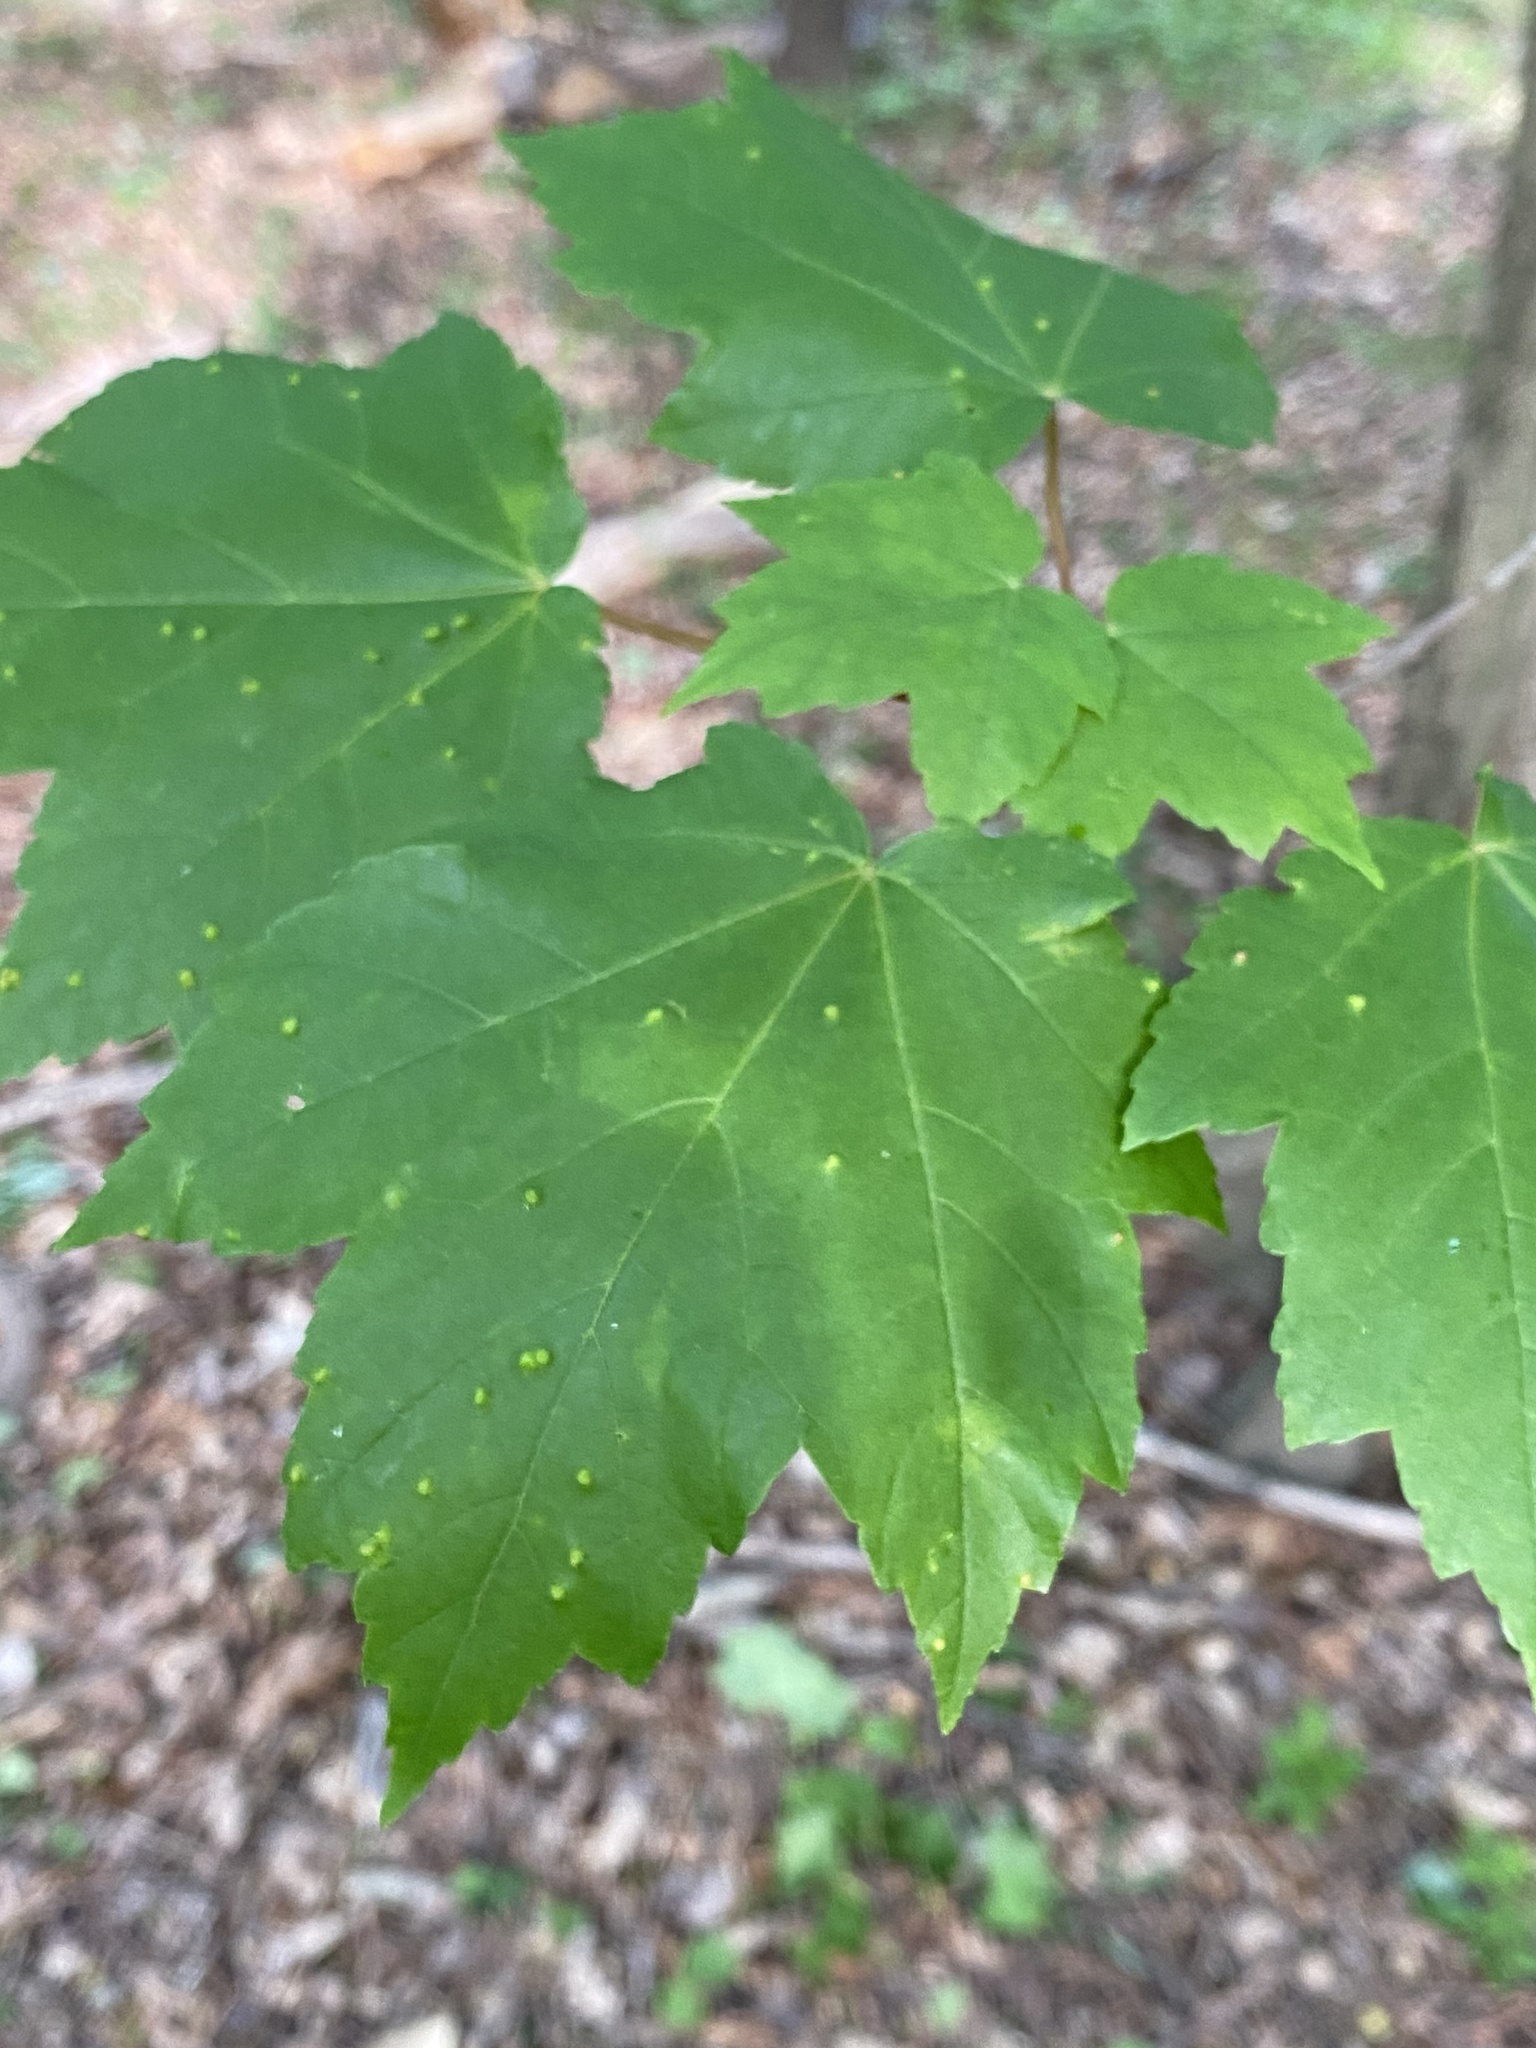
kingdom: Animalia
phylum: Arthropoda
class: Arachnida
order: Trombidiformes
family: Eriophyidae
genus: Vasates
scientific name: Vasates quadripedes
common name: Maple bladder gall mite
